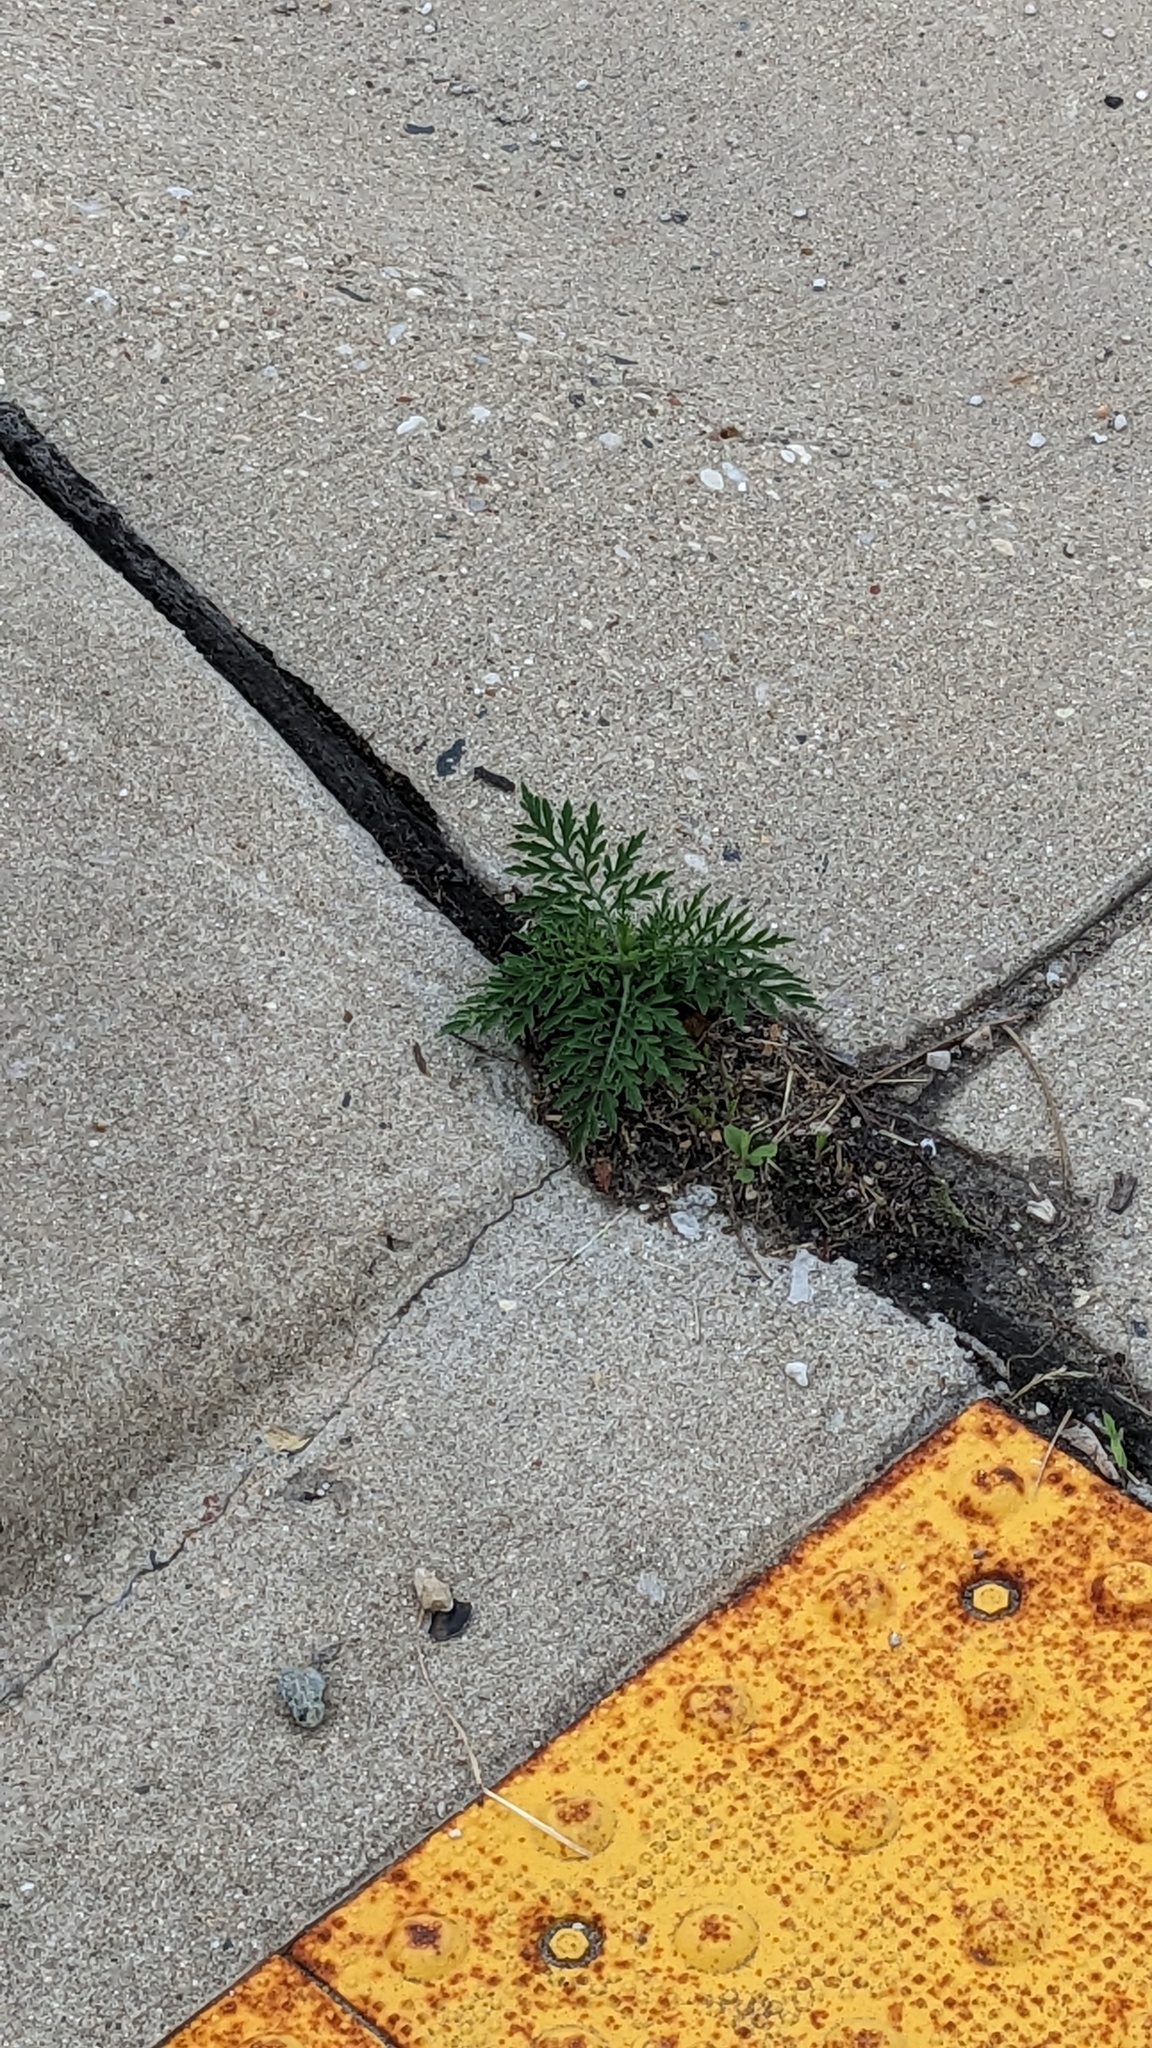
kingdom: Plantae
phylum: Tracheophyta
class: Magnoliopsida
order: Asterales
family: Asteraceae
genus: Ambrosia
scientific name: Ambrosia artemisiifolia
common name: Annual ragweed
